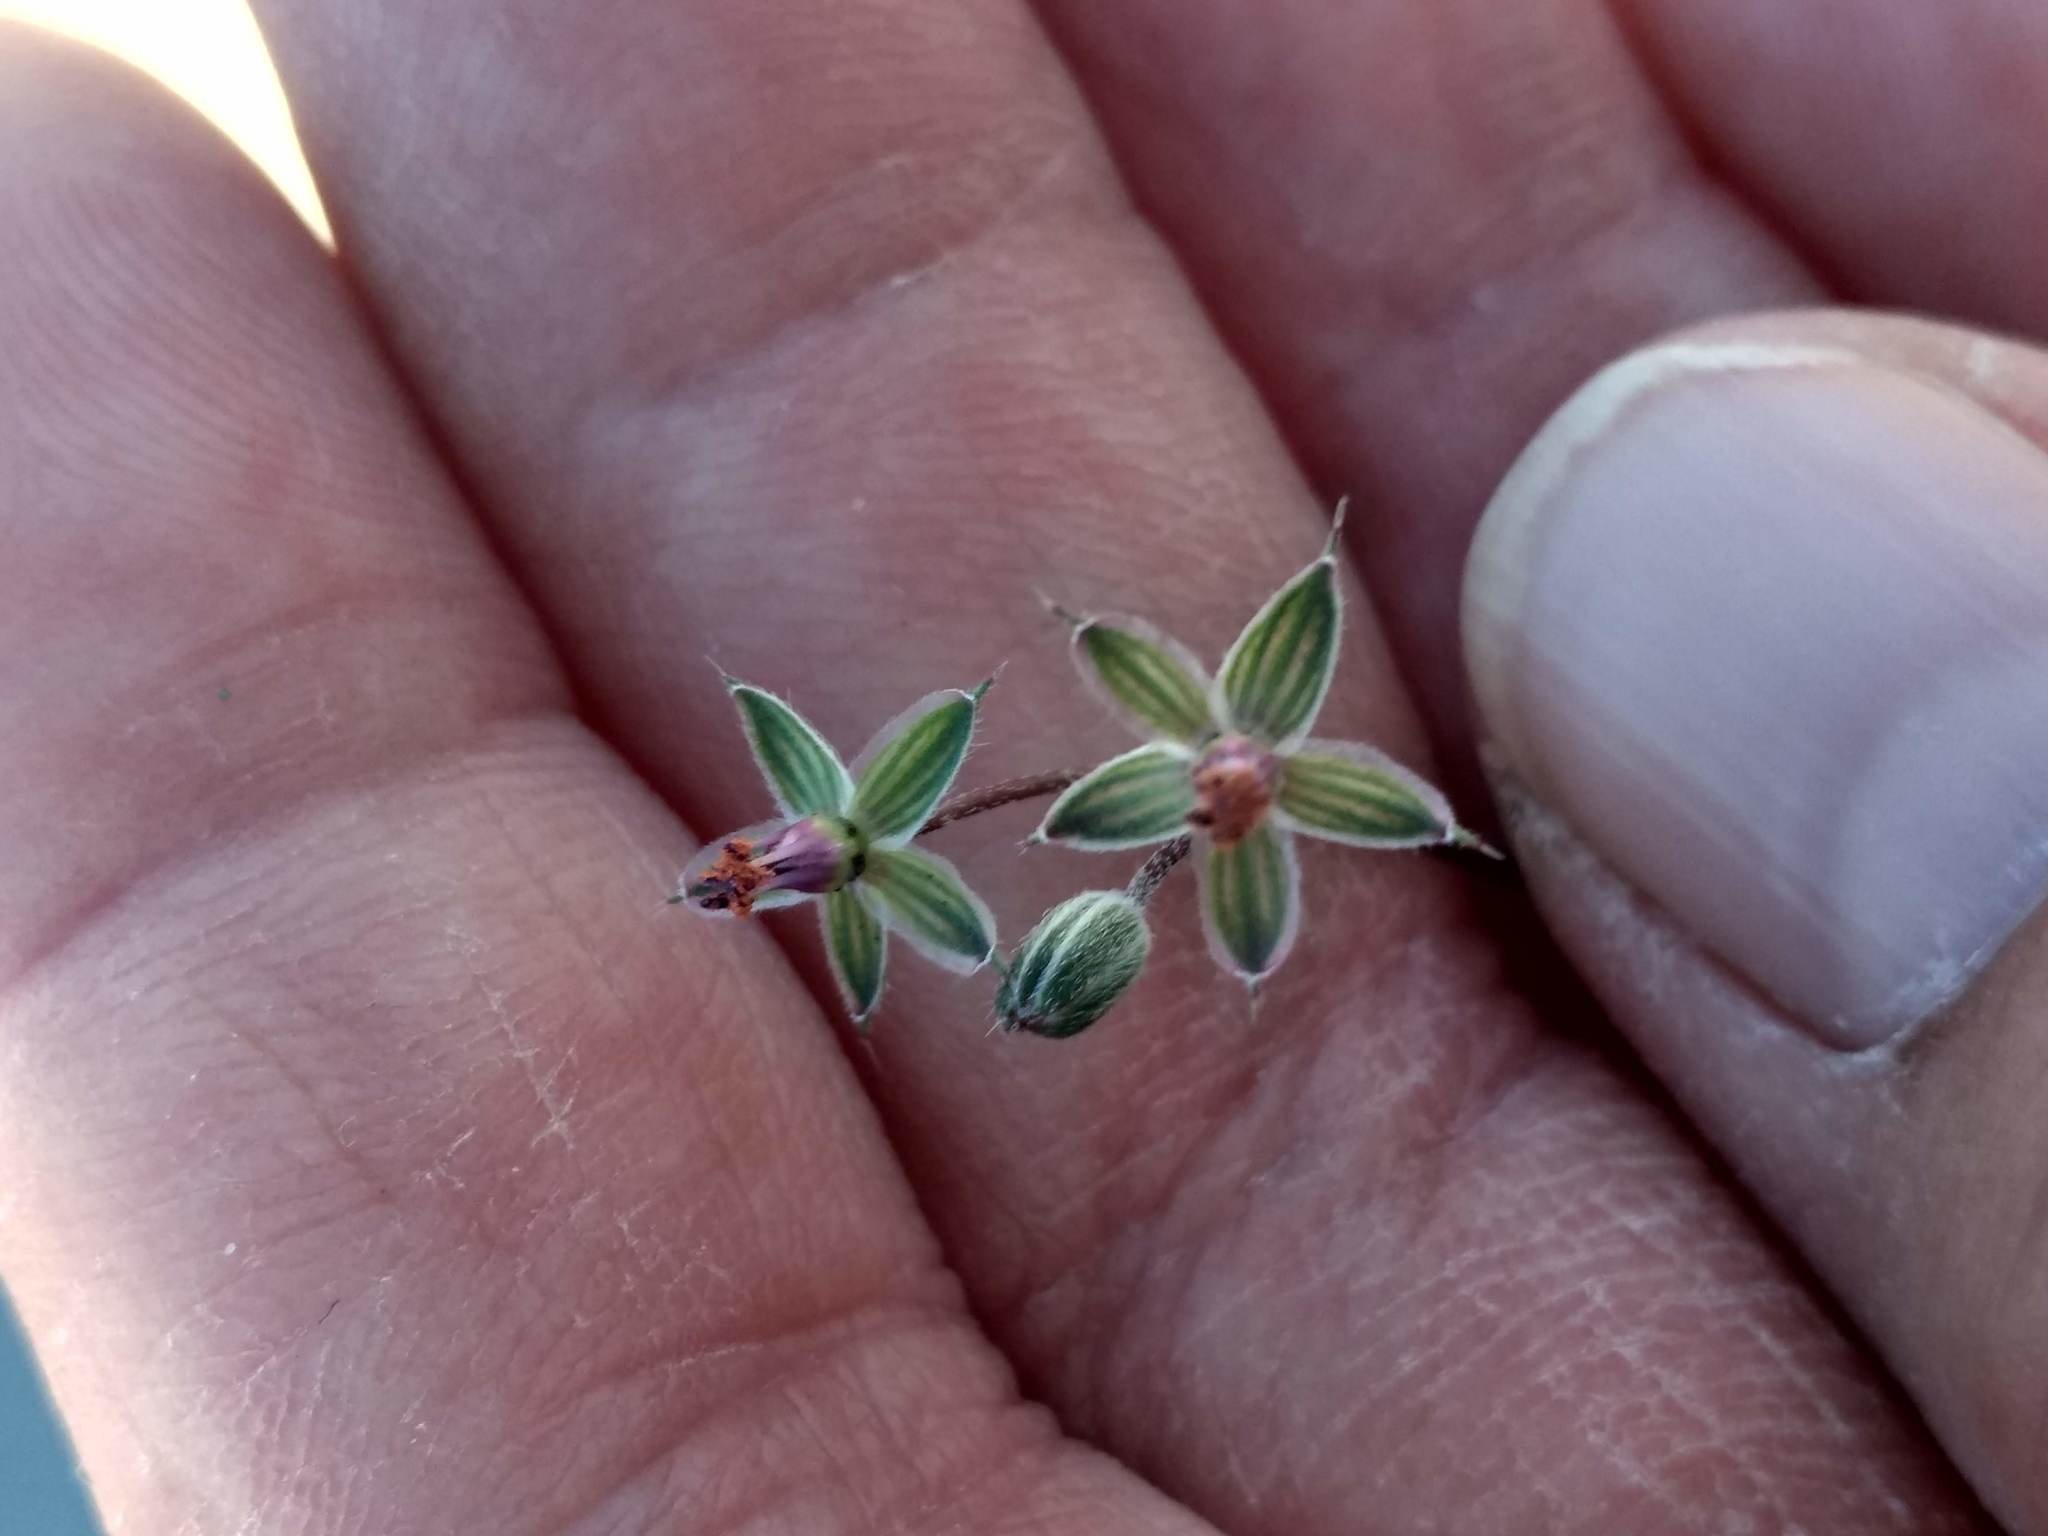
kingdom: Plantae
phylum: Tracheophyta
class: Magnoliopsida
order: Geraniales
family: Geraniaceae
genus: Erodium
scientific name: Erodium cicutarium
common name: Common stork's-bill
